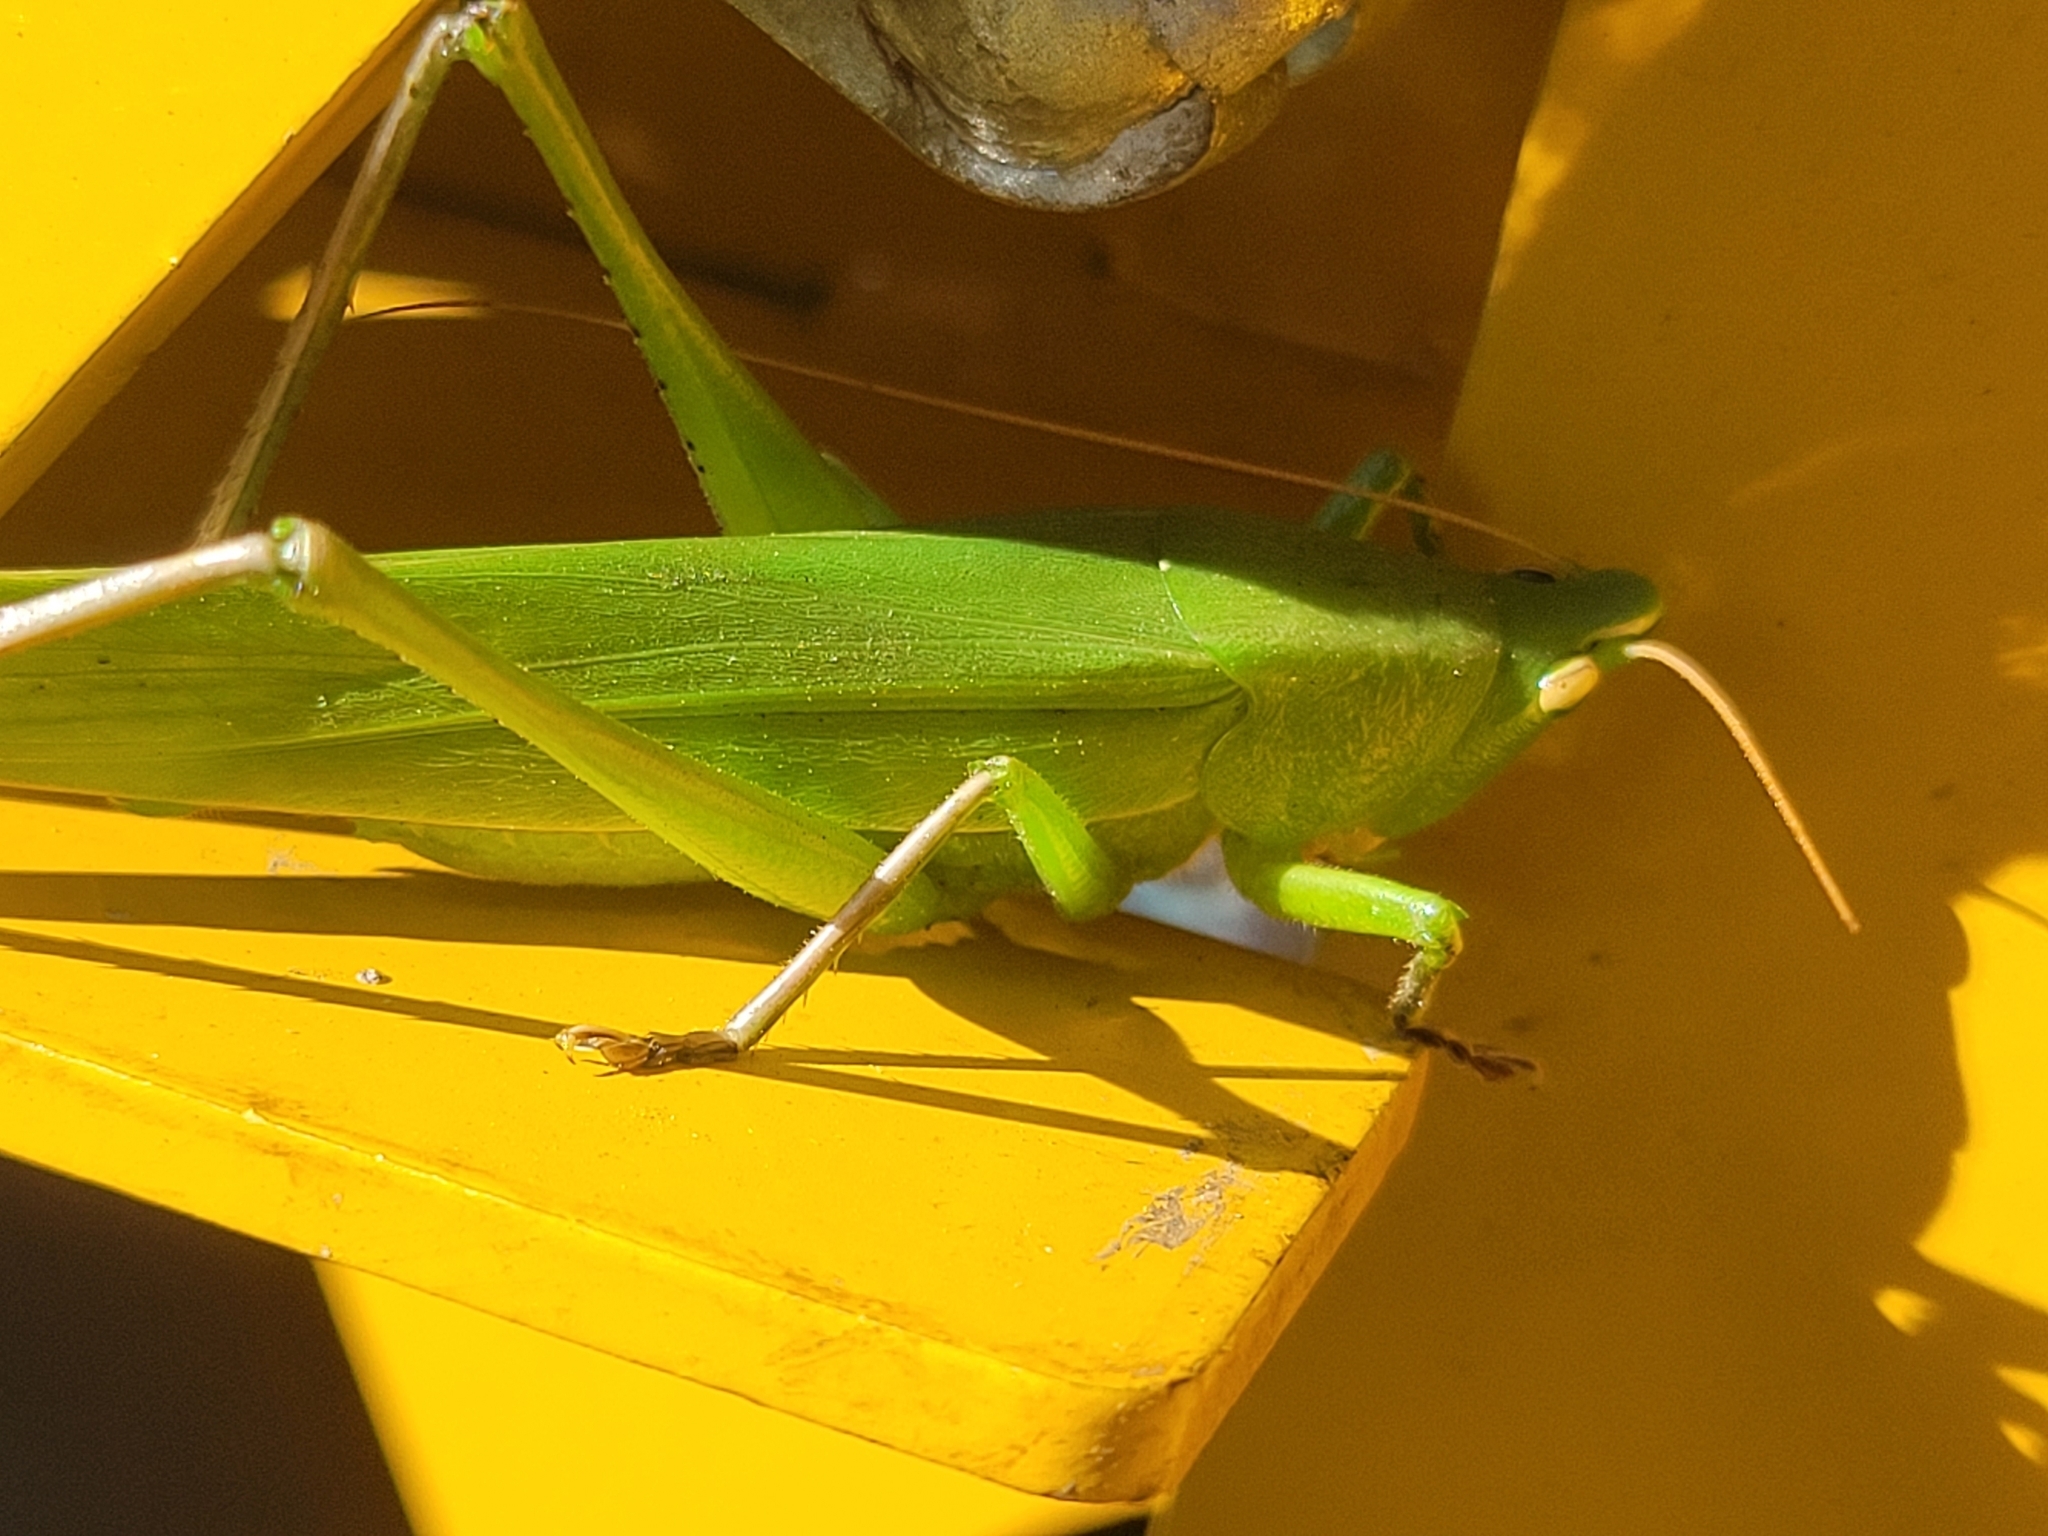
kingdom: Animalia
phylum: Arthropoda
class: Insecta
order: Orthoptera
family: Tettigoniidae
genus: Neoconocephalus
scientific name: Neoconocephalus triops
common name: Broad-tipped conehead
